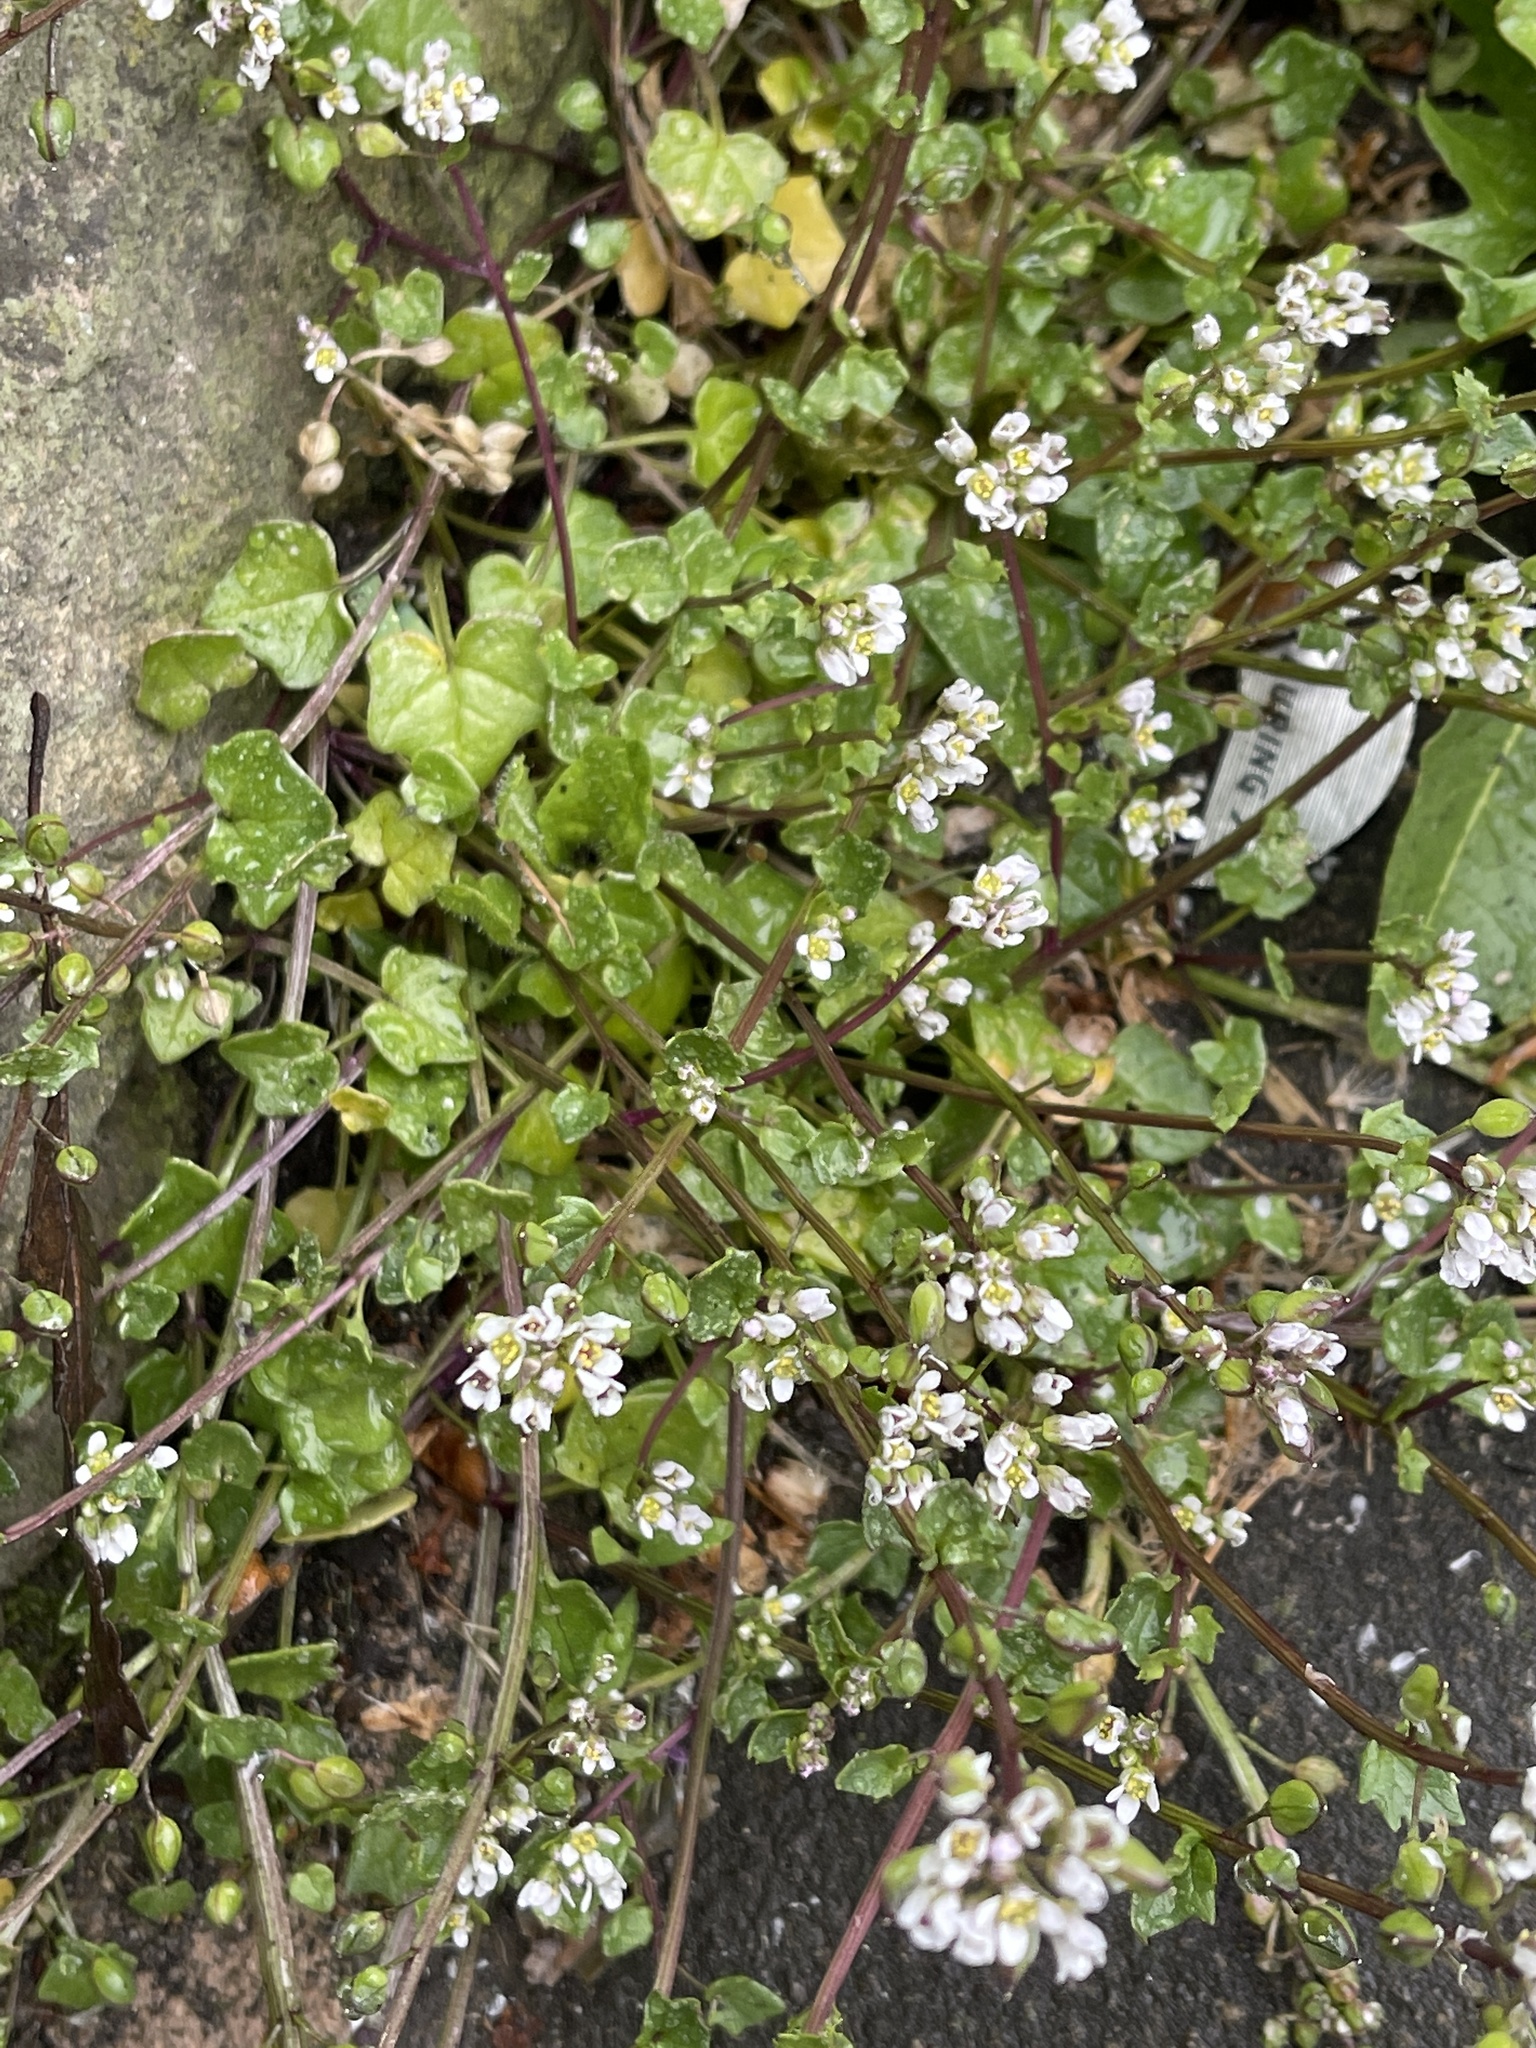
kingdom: Plantae
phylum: Tracheophyta
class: Magnoliopsida
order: Brassicales
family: Brassicaceae
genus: Cochlearia
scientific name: Cochlearia danica
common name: Early scurvygrass
